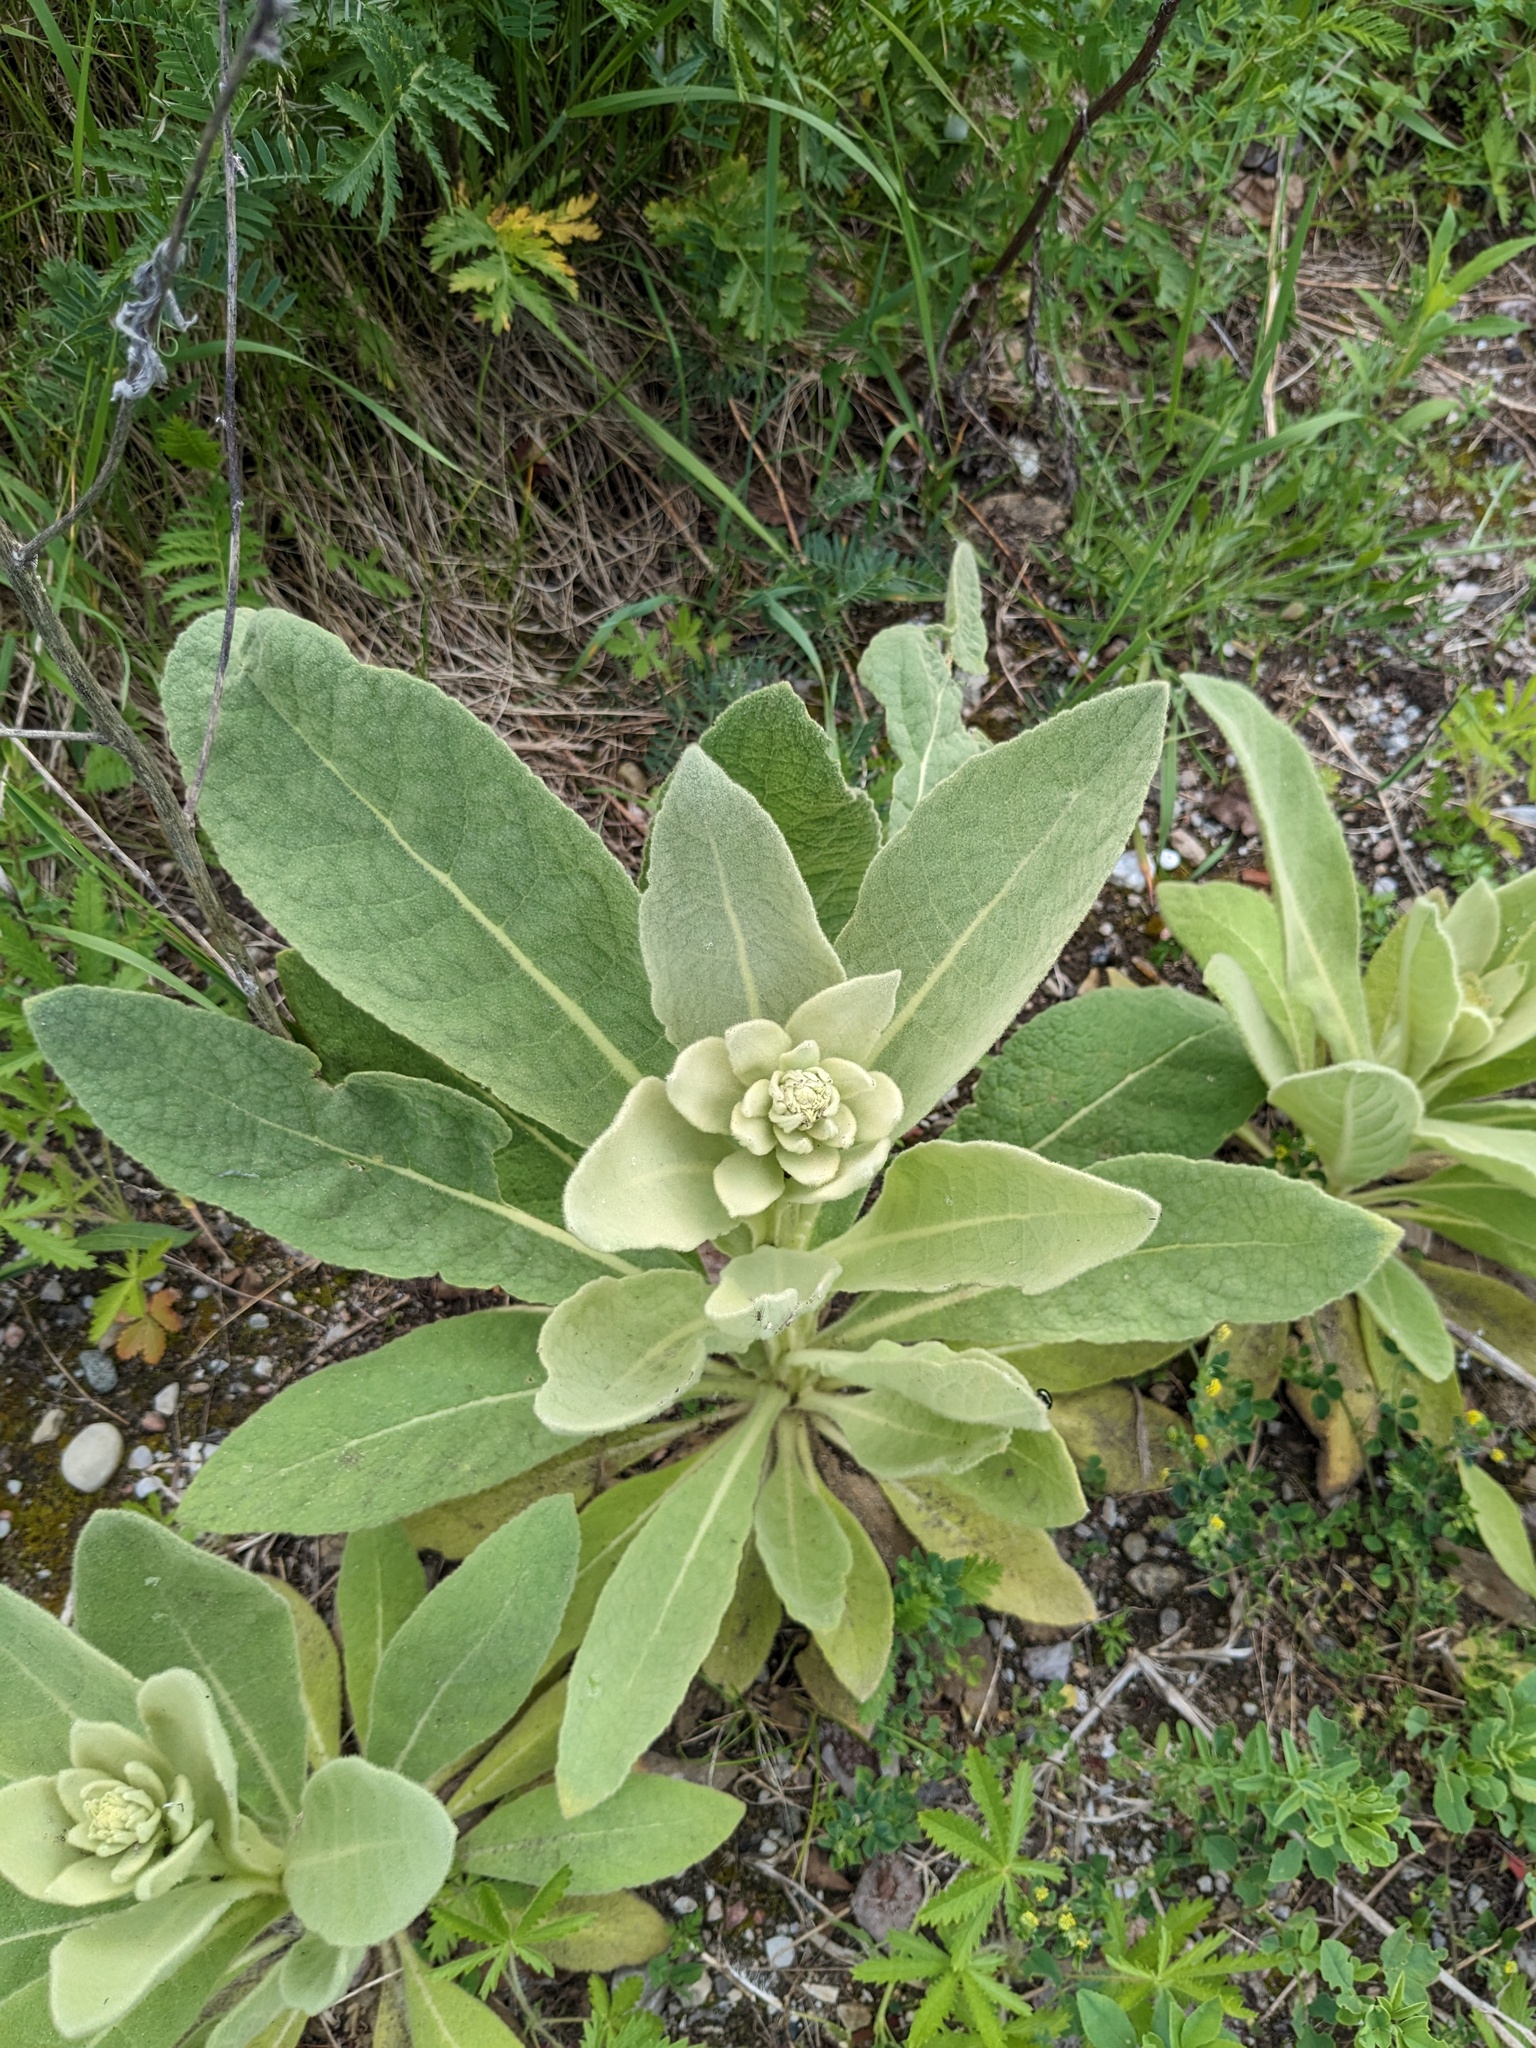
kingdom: Plantae
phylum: Tracheophyta
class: Magnoliopsida
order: Lamiales
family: Scrophulariaceae
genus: Verbascum
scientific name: Verbascum thapsus
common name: Common mullein
